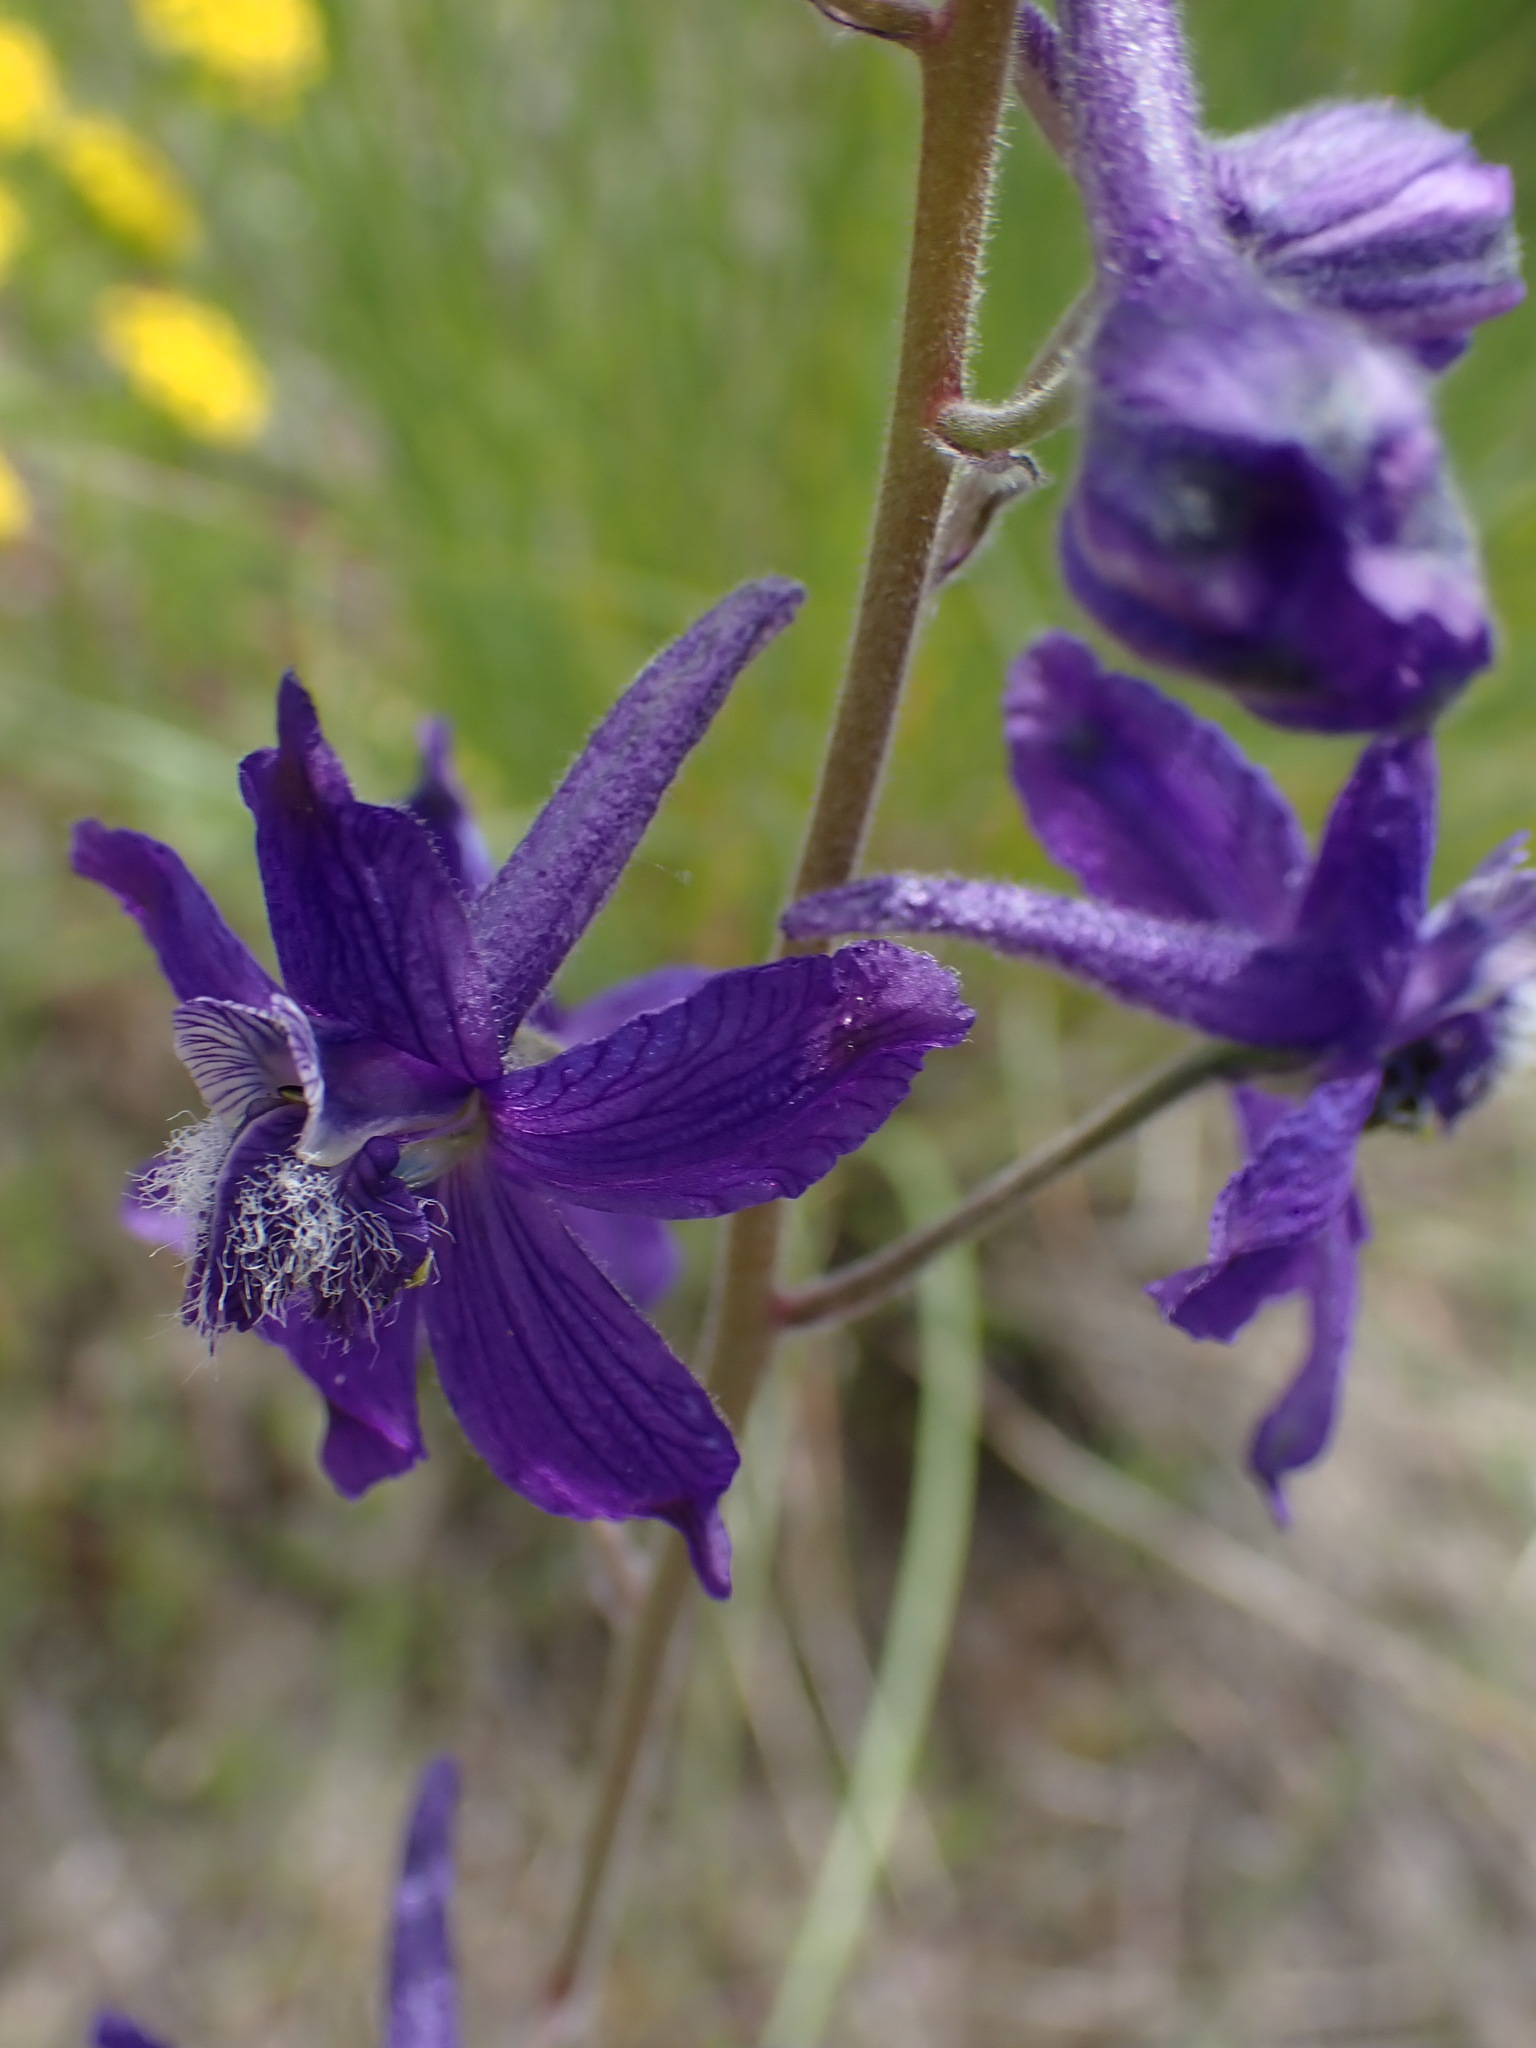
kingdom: Plantae
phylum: Tracheophyta
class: Magnoliopsida
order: Ranunculales
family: Ranunculaceae
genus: Delphinium
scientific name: Delphinium nuttallianum
